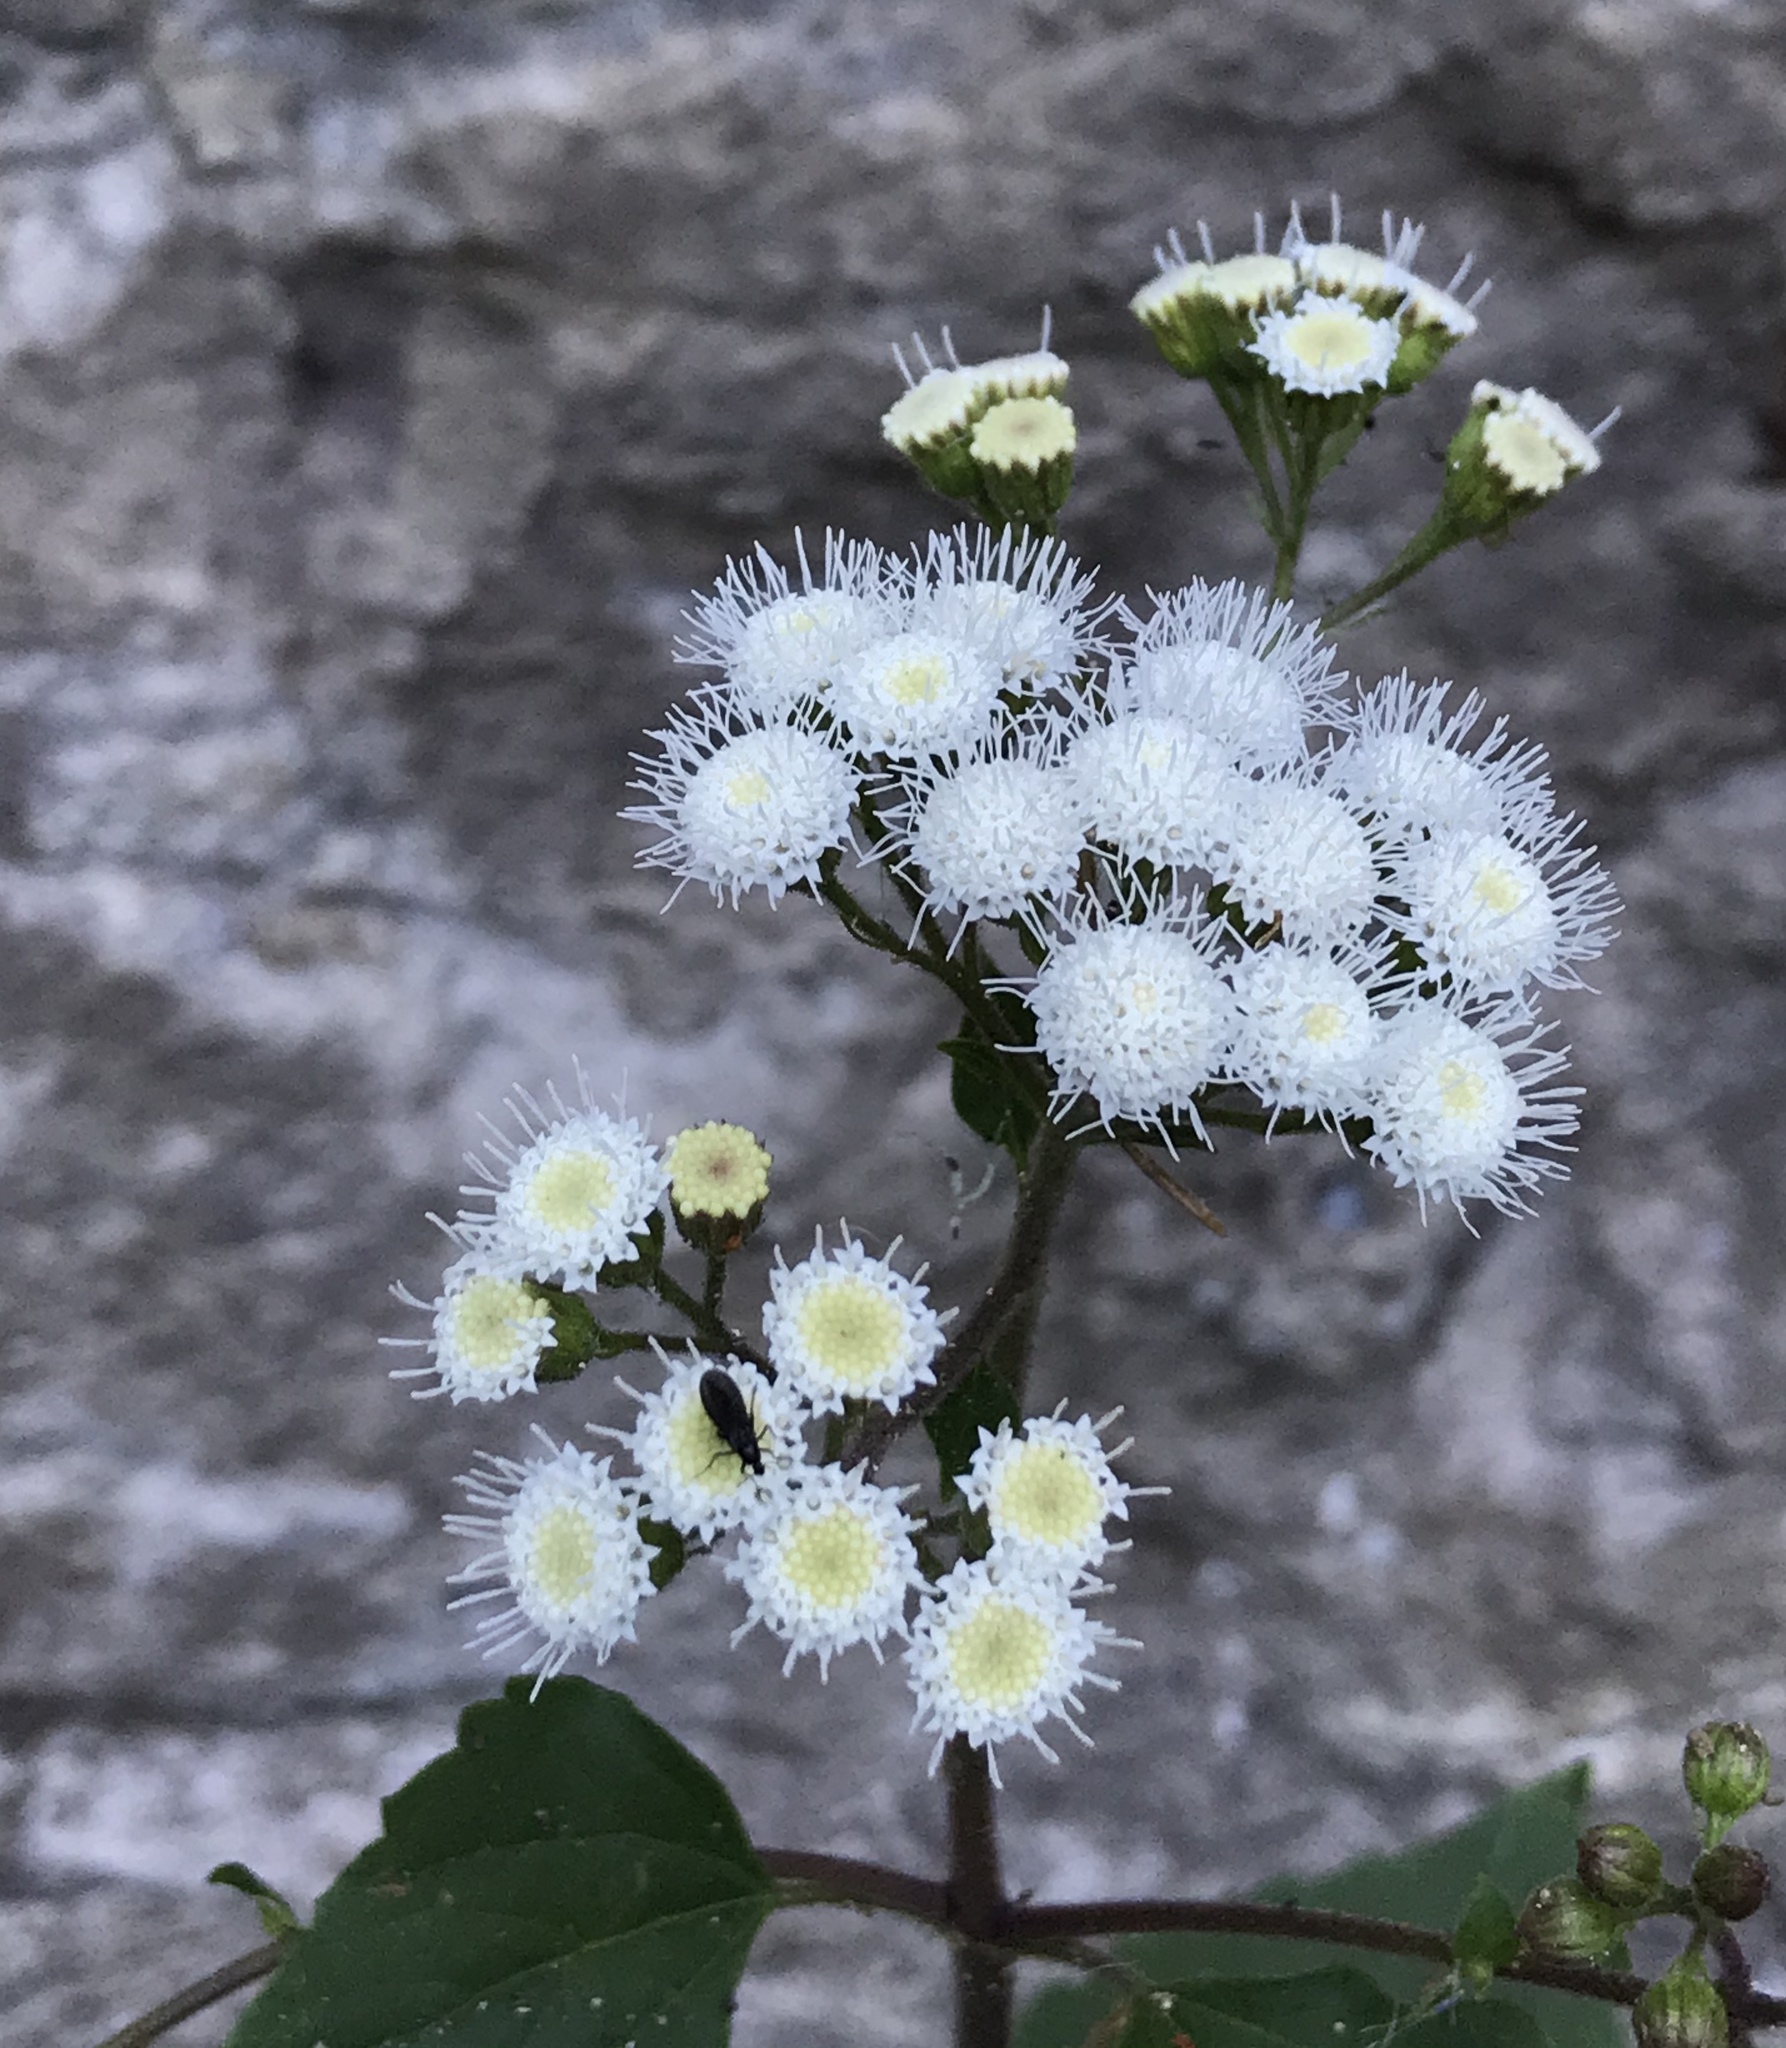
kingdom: Plantae
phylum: Tracheophyta
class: Magnoliopsida
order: Asterales
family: Asteraceae
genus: Ageratina
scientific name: Ageratina adenophora
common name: Sticky snakeroot
